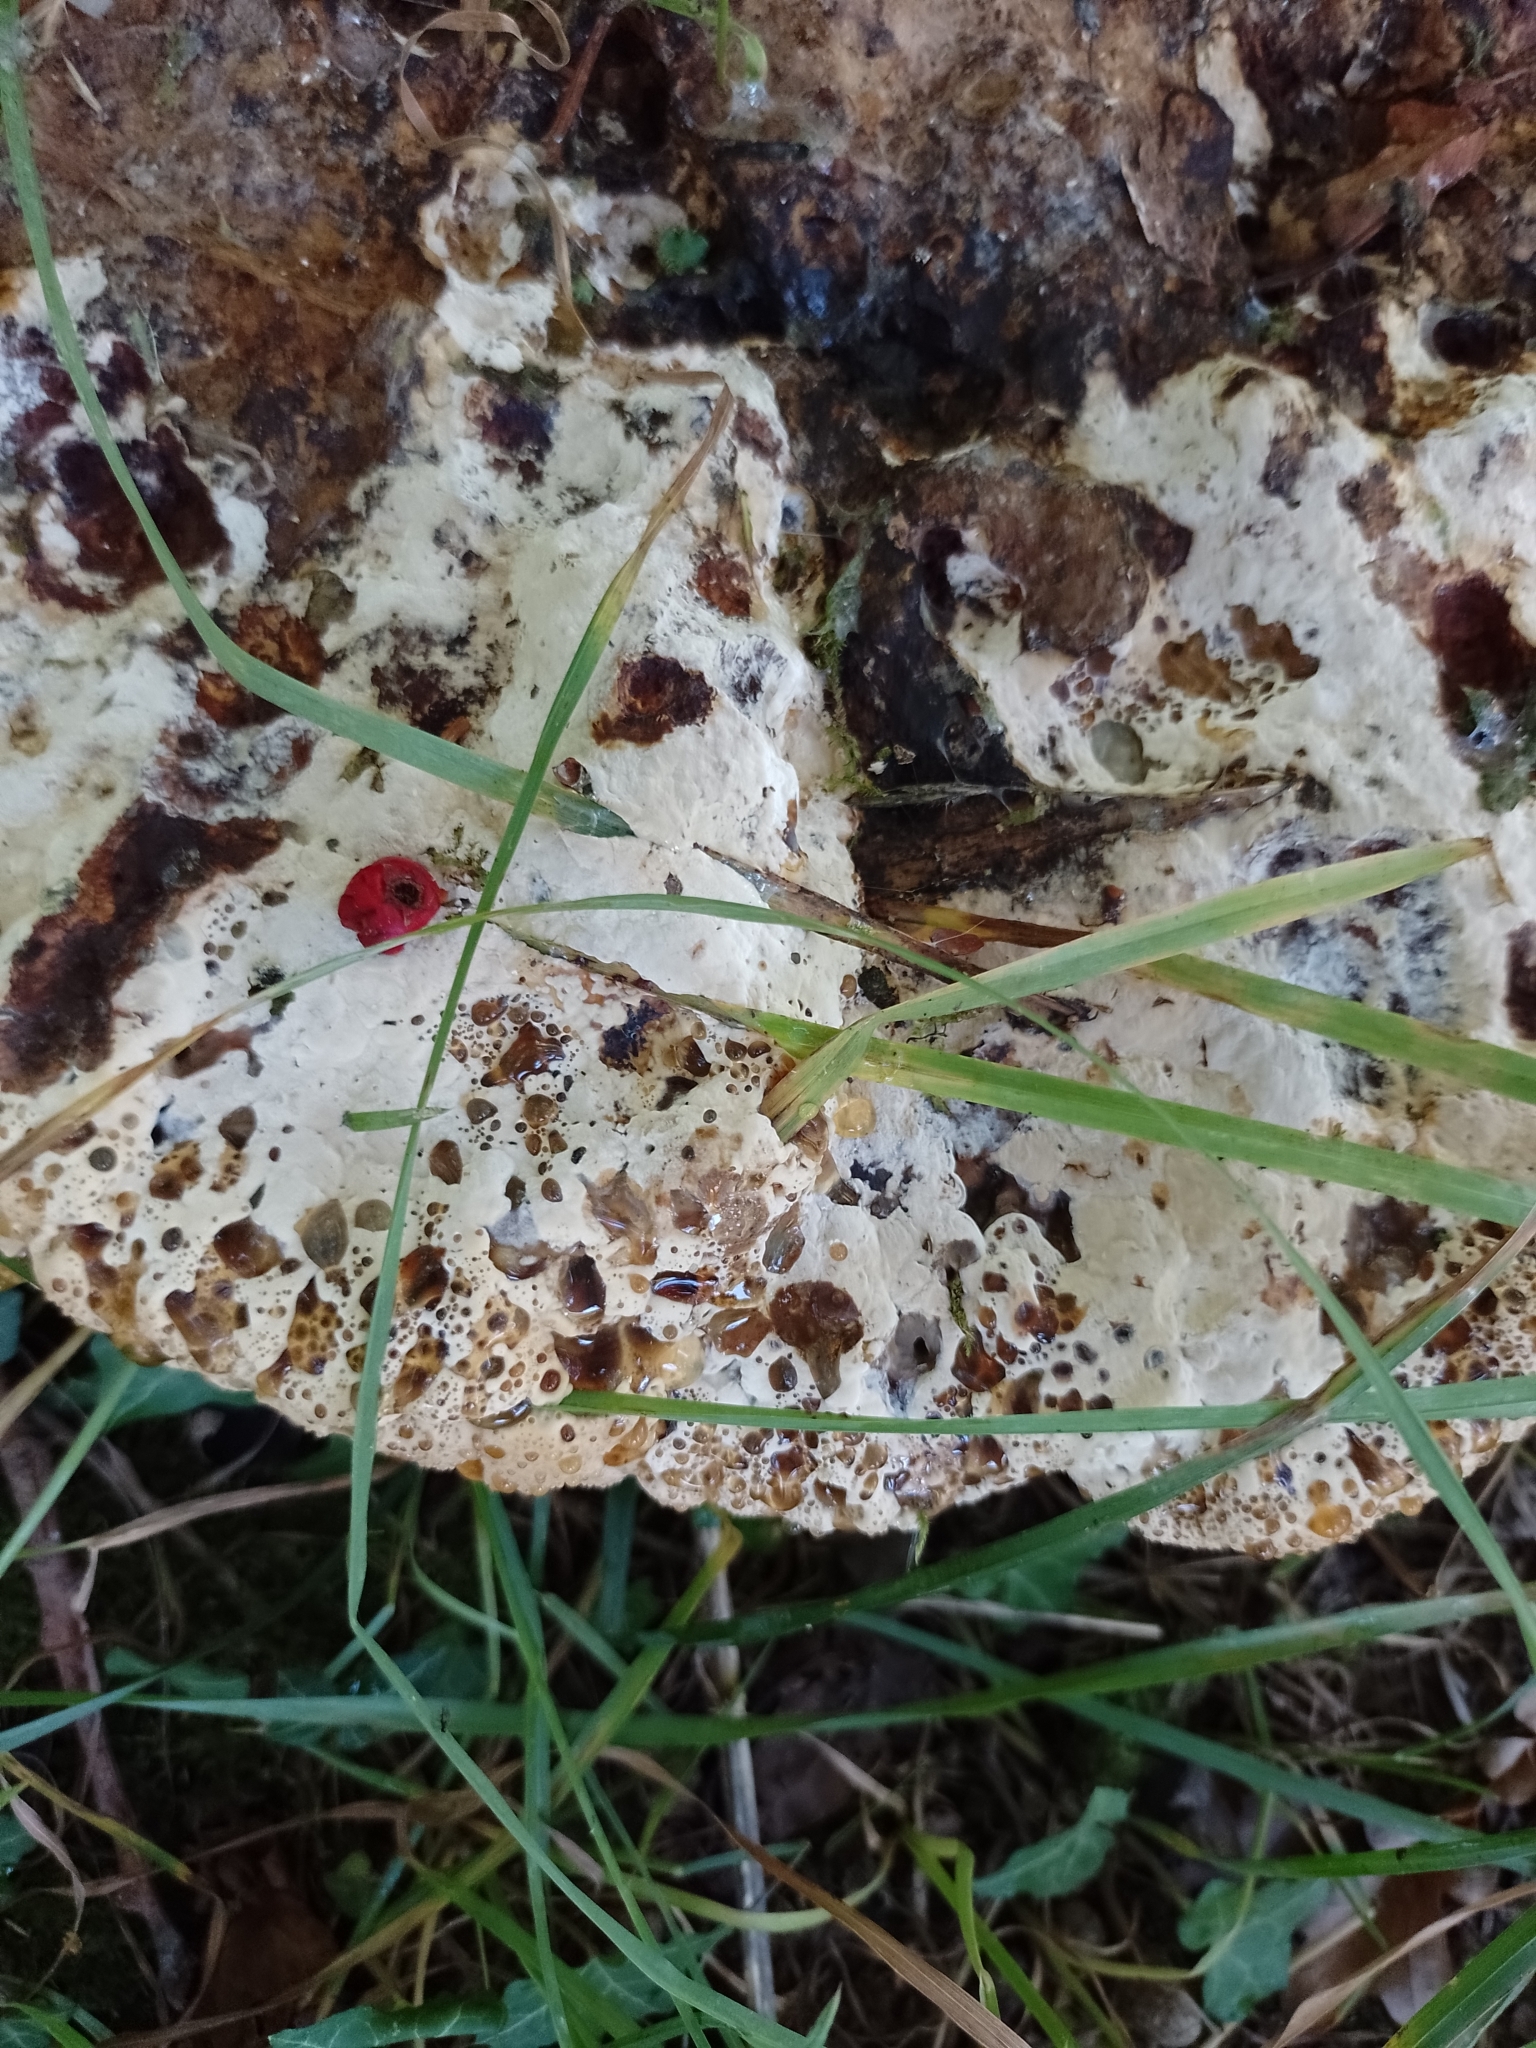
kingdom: Fungi
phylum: Basidiomycota
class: Agaricomycetes
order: Hymenochaetales
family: Hymenochaetaceae
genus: Pseudoinonotus
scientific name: Pseudoinonotus dryadeus
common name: Oak bracket
